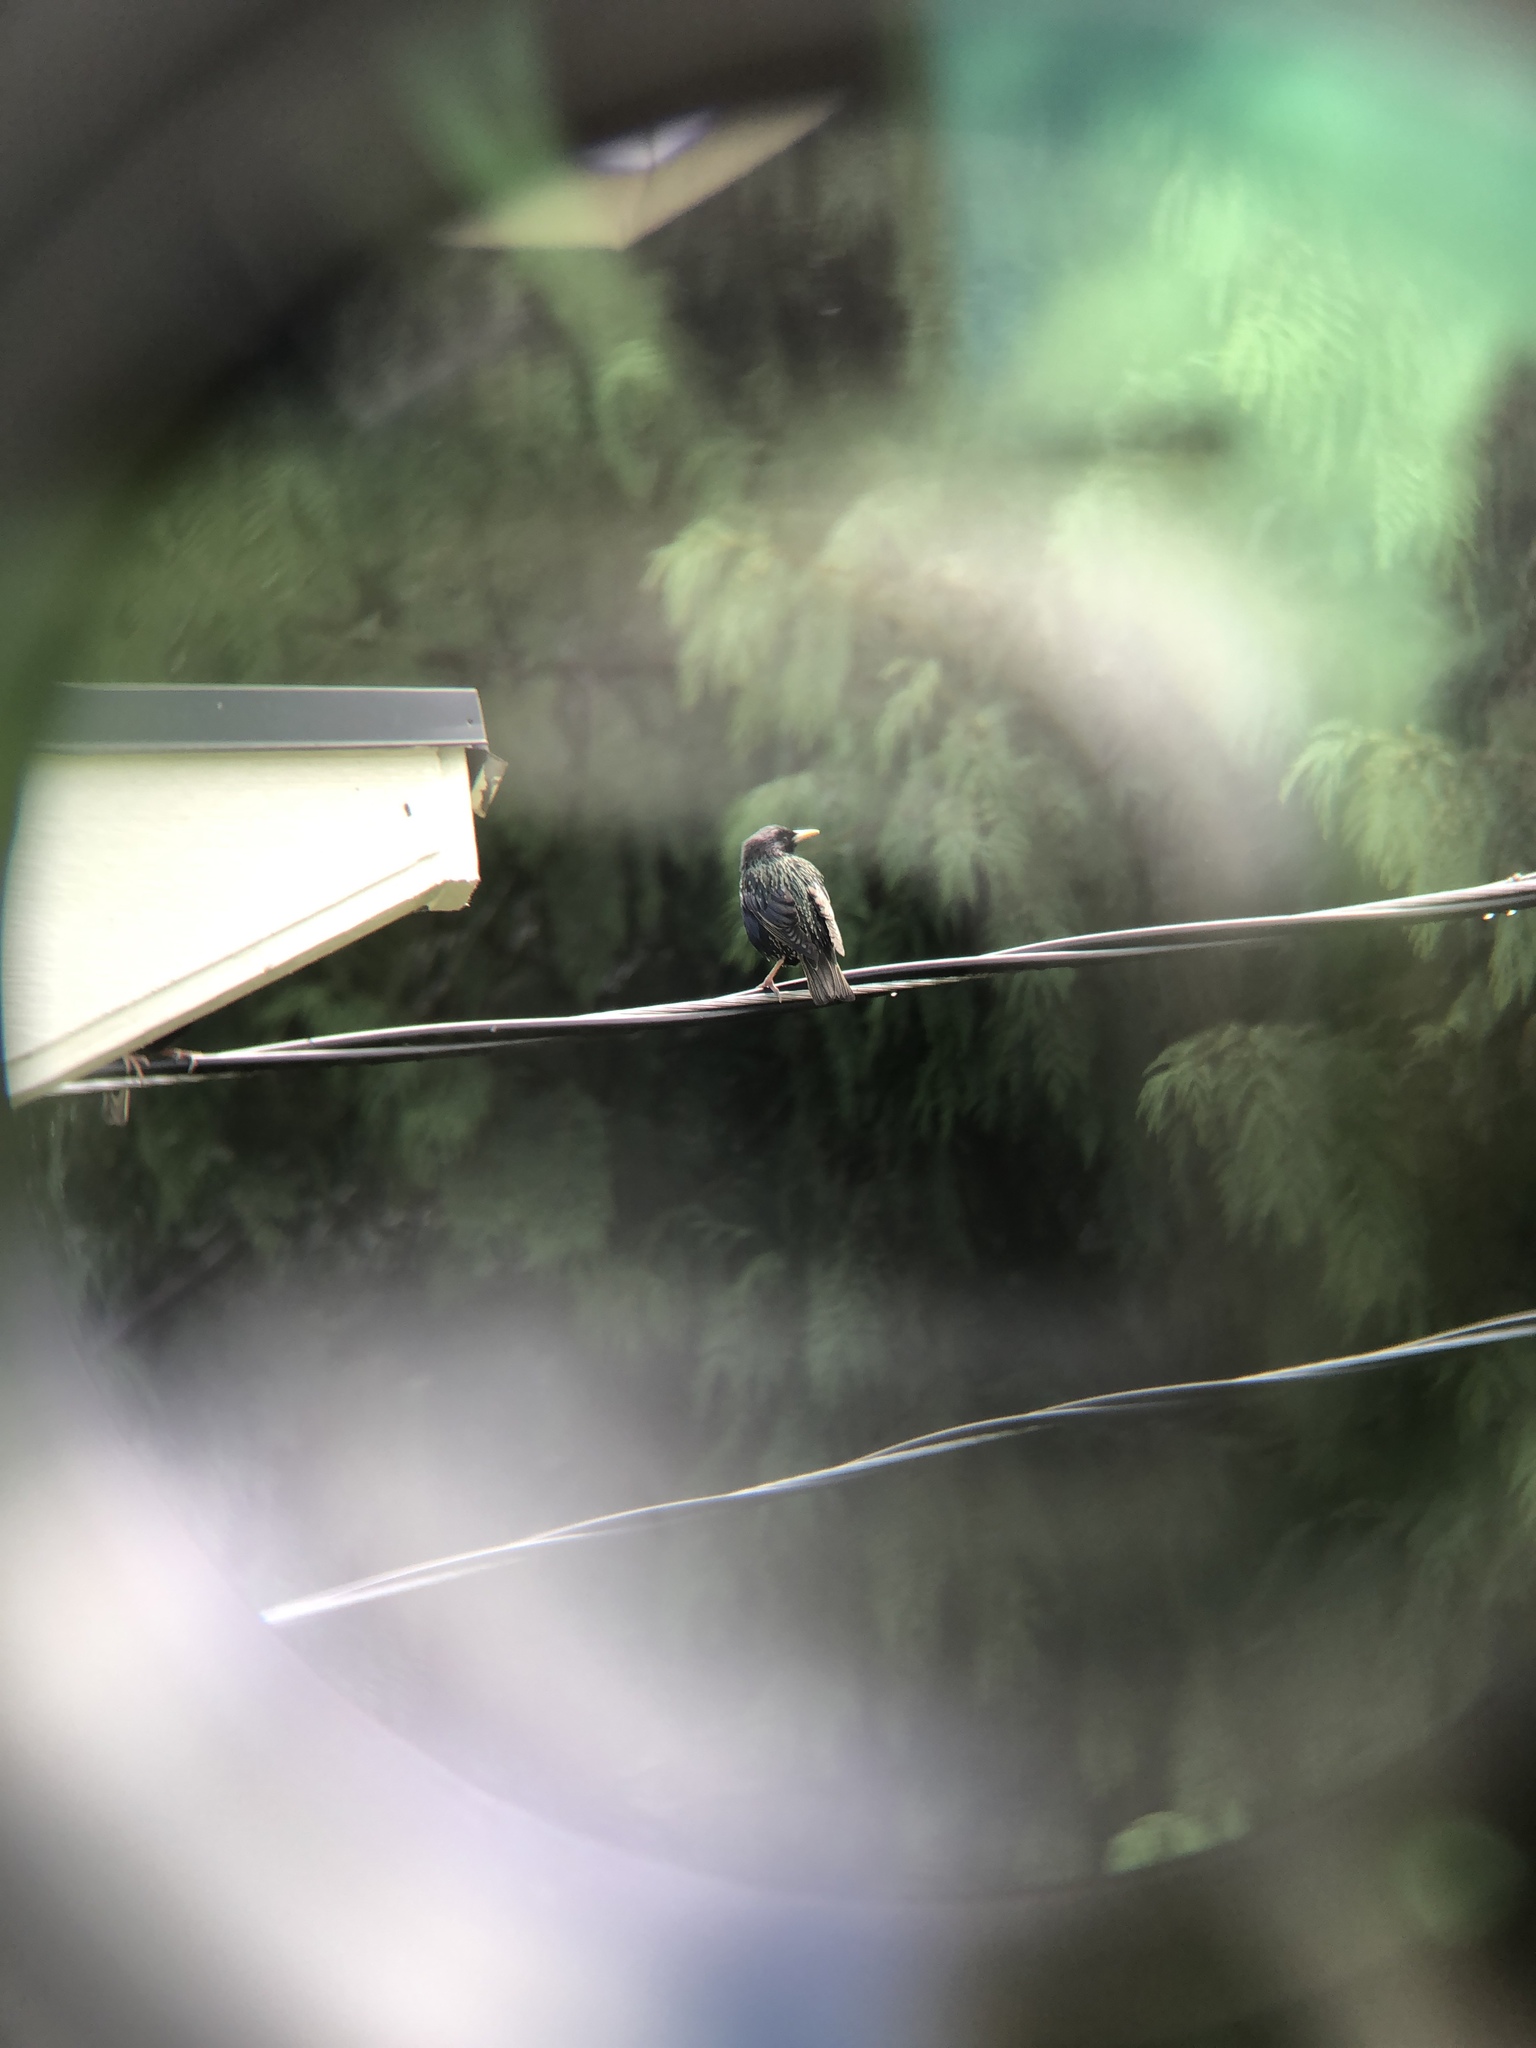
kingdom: Animalia
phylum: Chordata
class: Aves
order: Passeriformes
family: Sturnidae
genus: Sturnus
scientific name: Sturnus vulgaris
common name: Common starling
